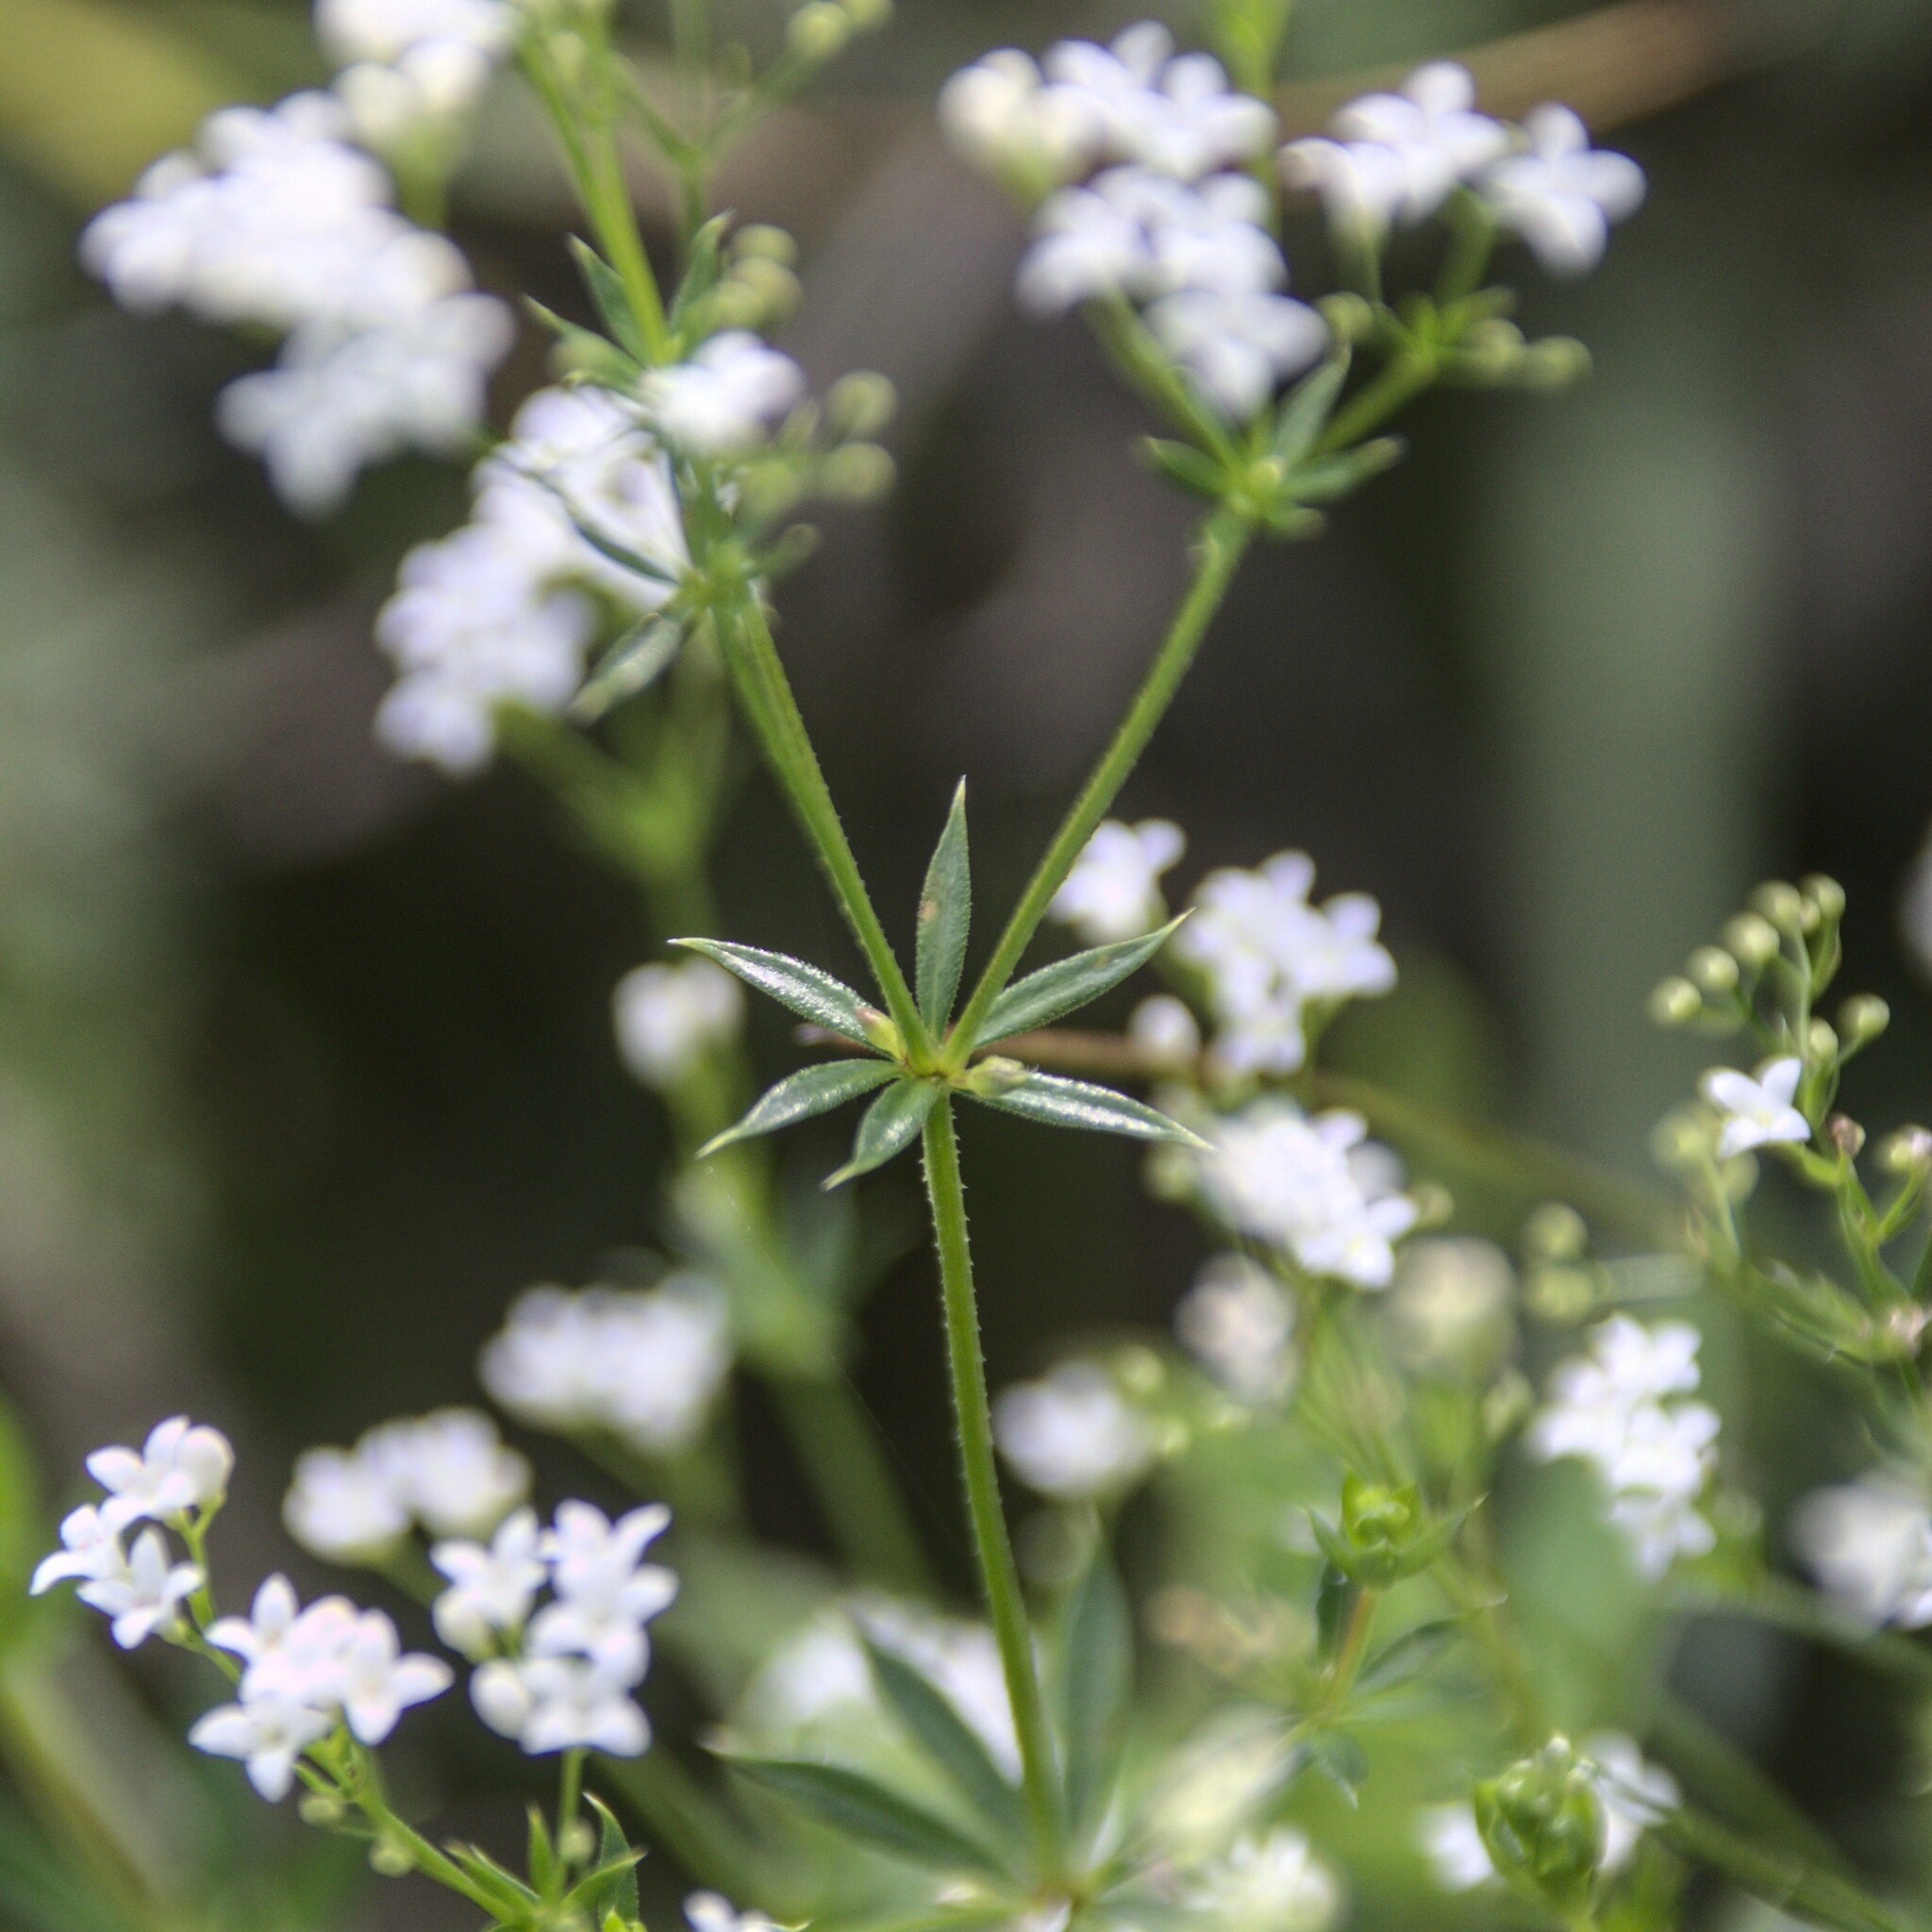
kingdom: Plantae
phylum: Tracheophyta
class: Magnoliopsida
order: Gentianales
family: Rubiaceae
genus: Galium
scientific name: Galium rivale
